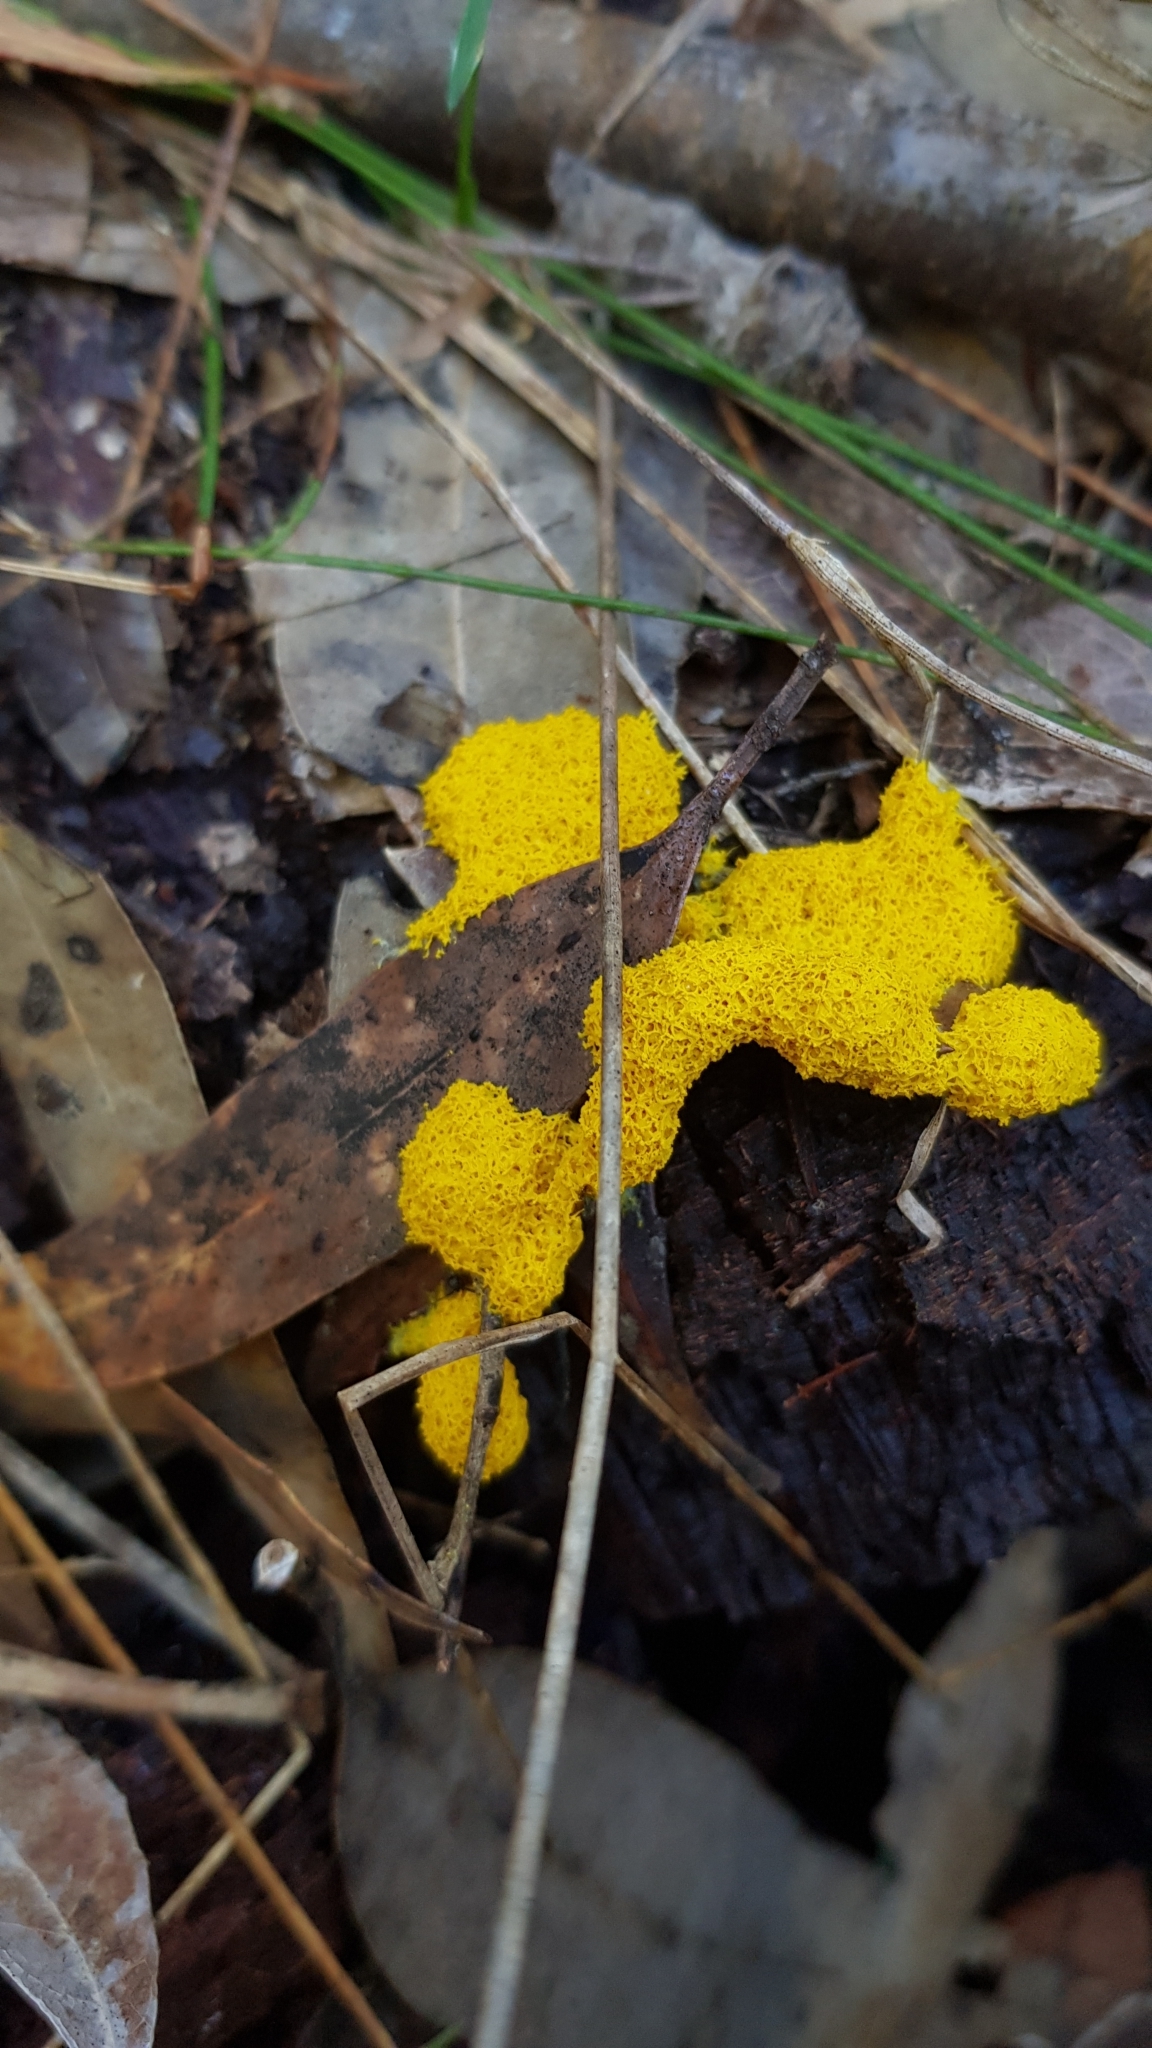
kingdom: Protozoa
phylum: Mycetozoa
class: Myxomycetes
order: Physarales
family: Physaraceae
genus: Fuligo
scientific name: Fuligo septica
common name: Dog vomit slime mold
